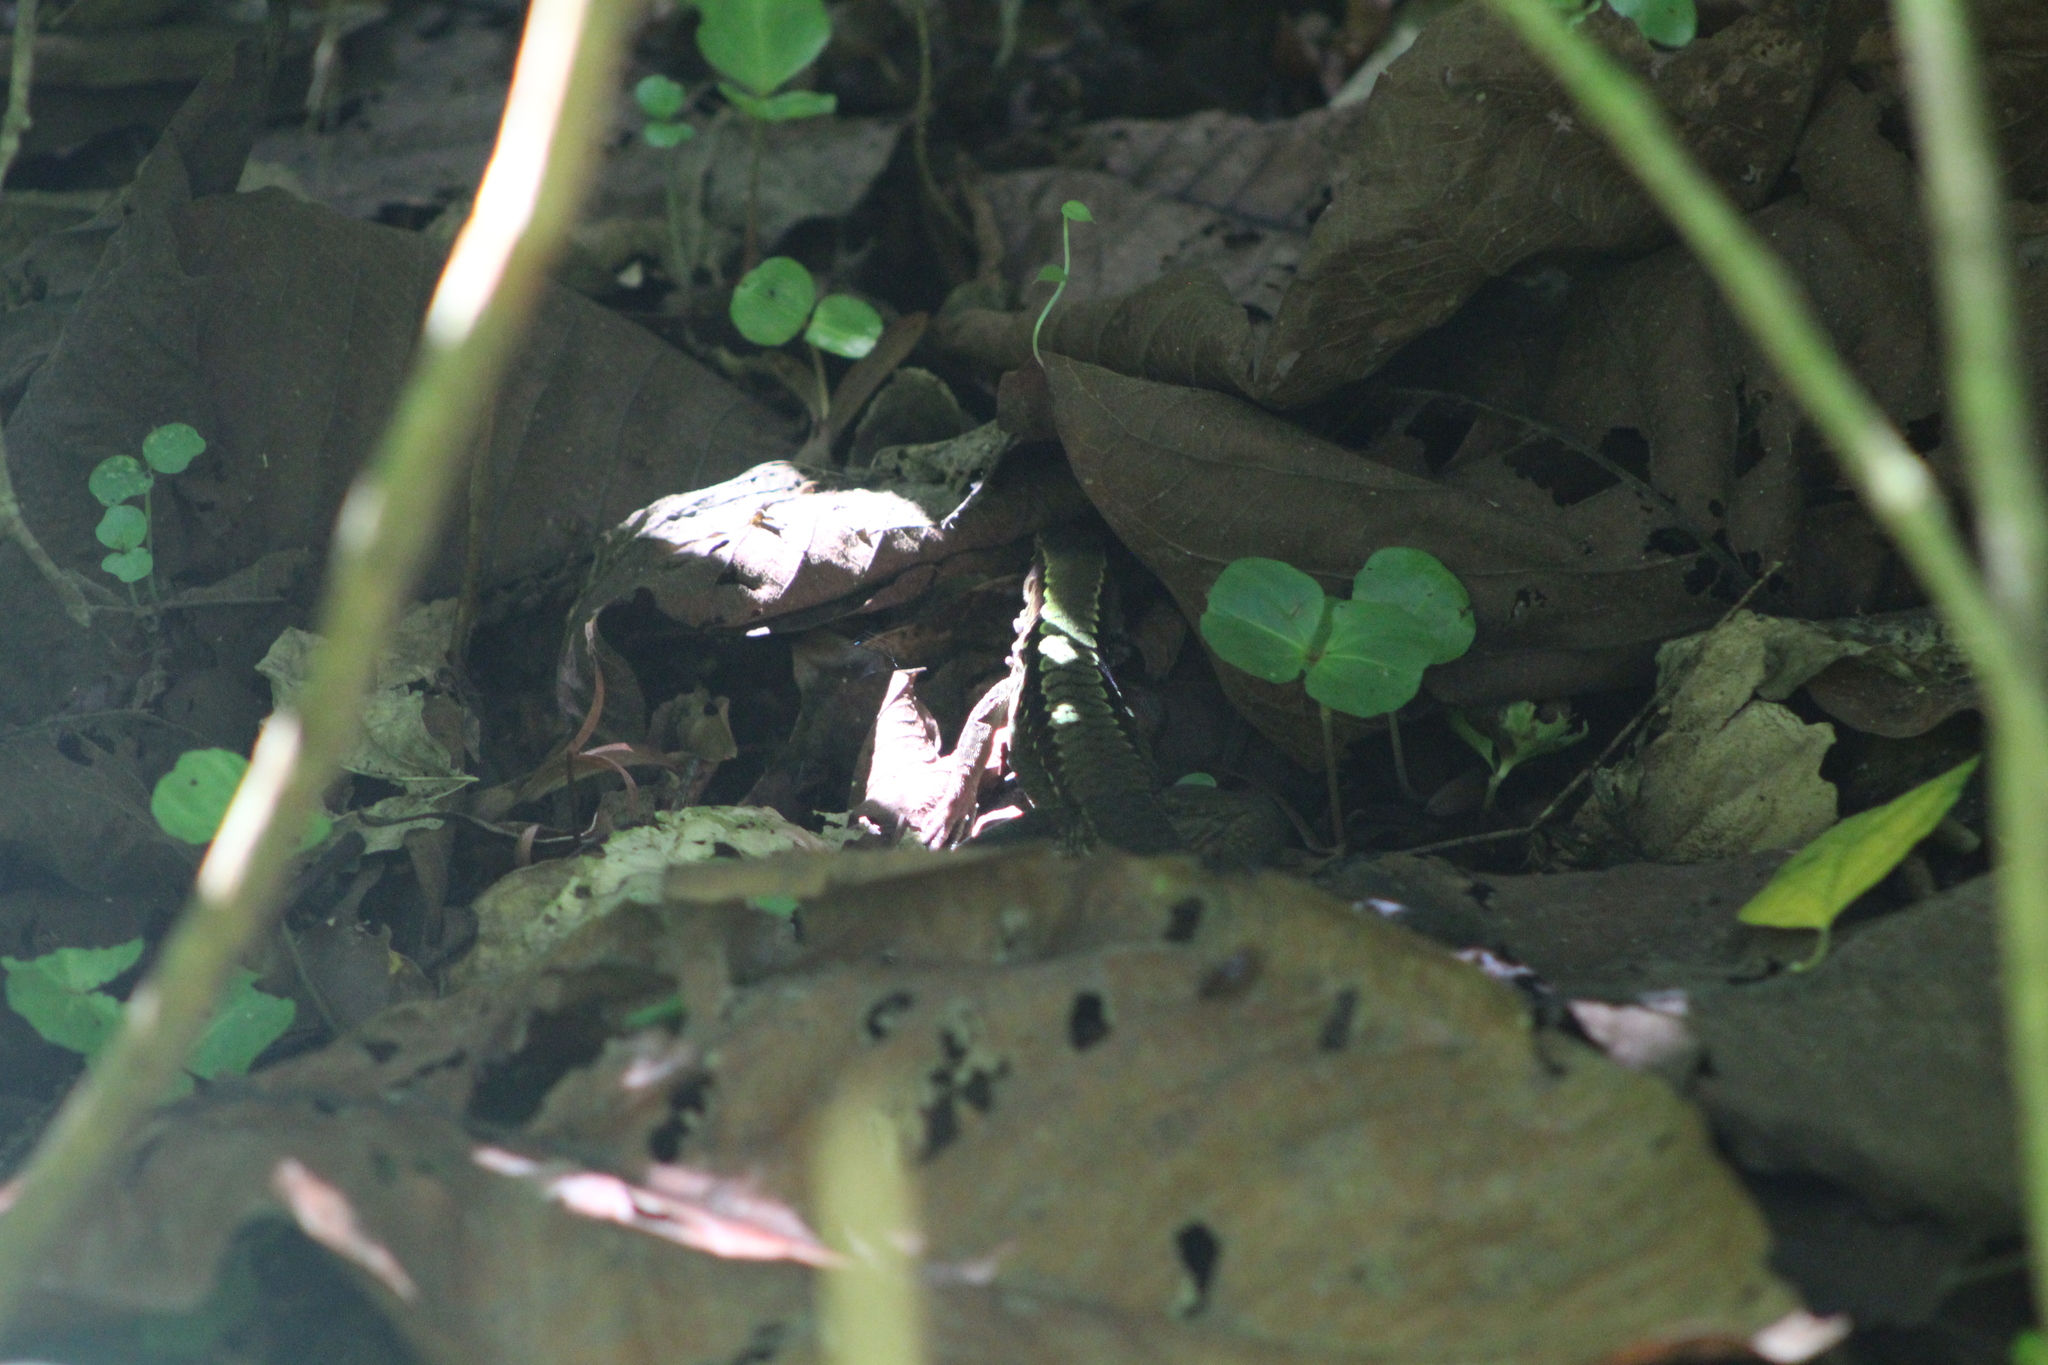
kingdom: Animalia
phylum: Chordata
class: Squamata
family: Teiidae
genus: Holcosus
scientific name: Holcosus leptophrys
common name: Delicate ameiva
